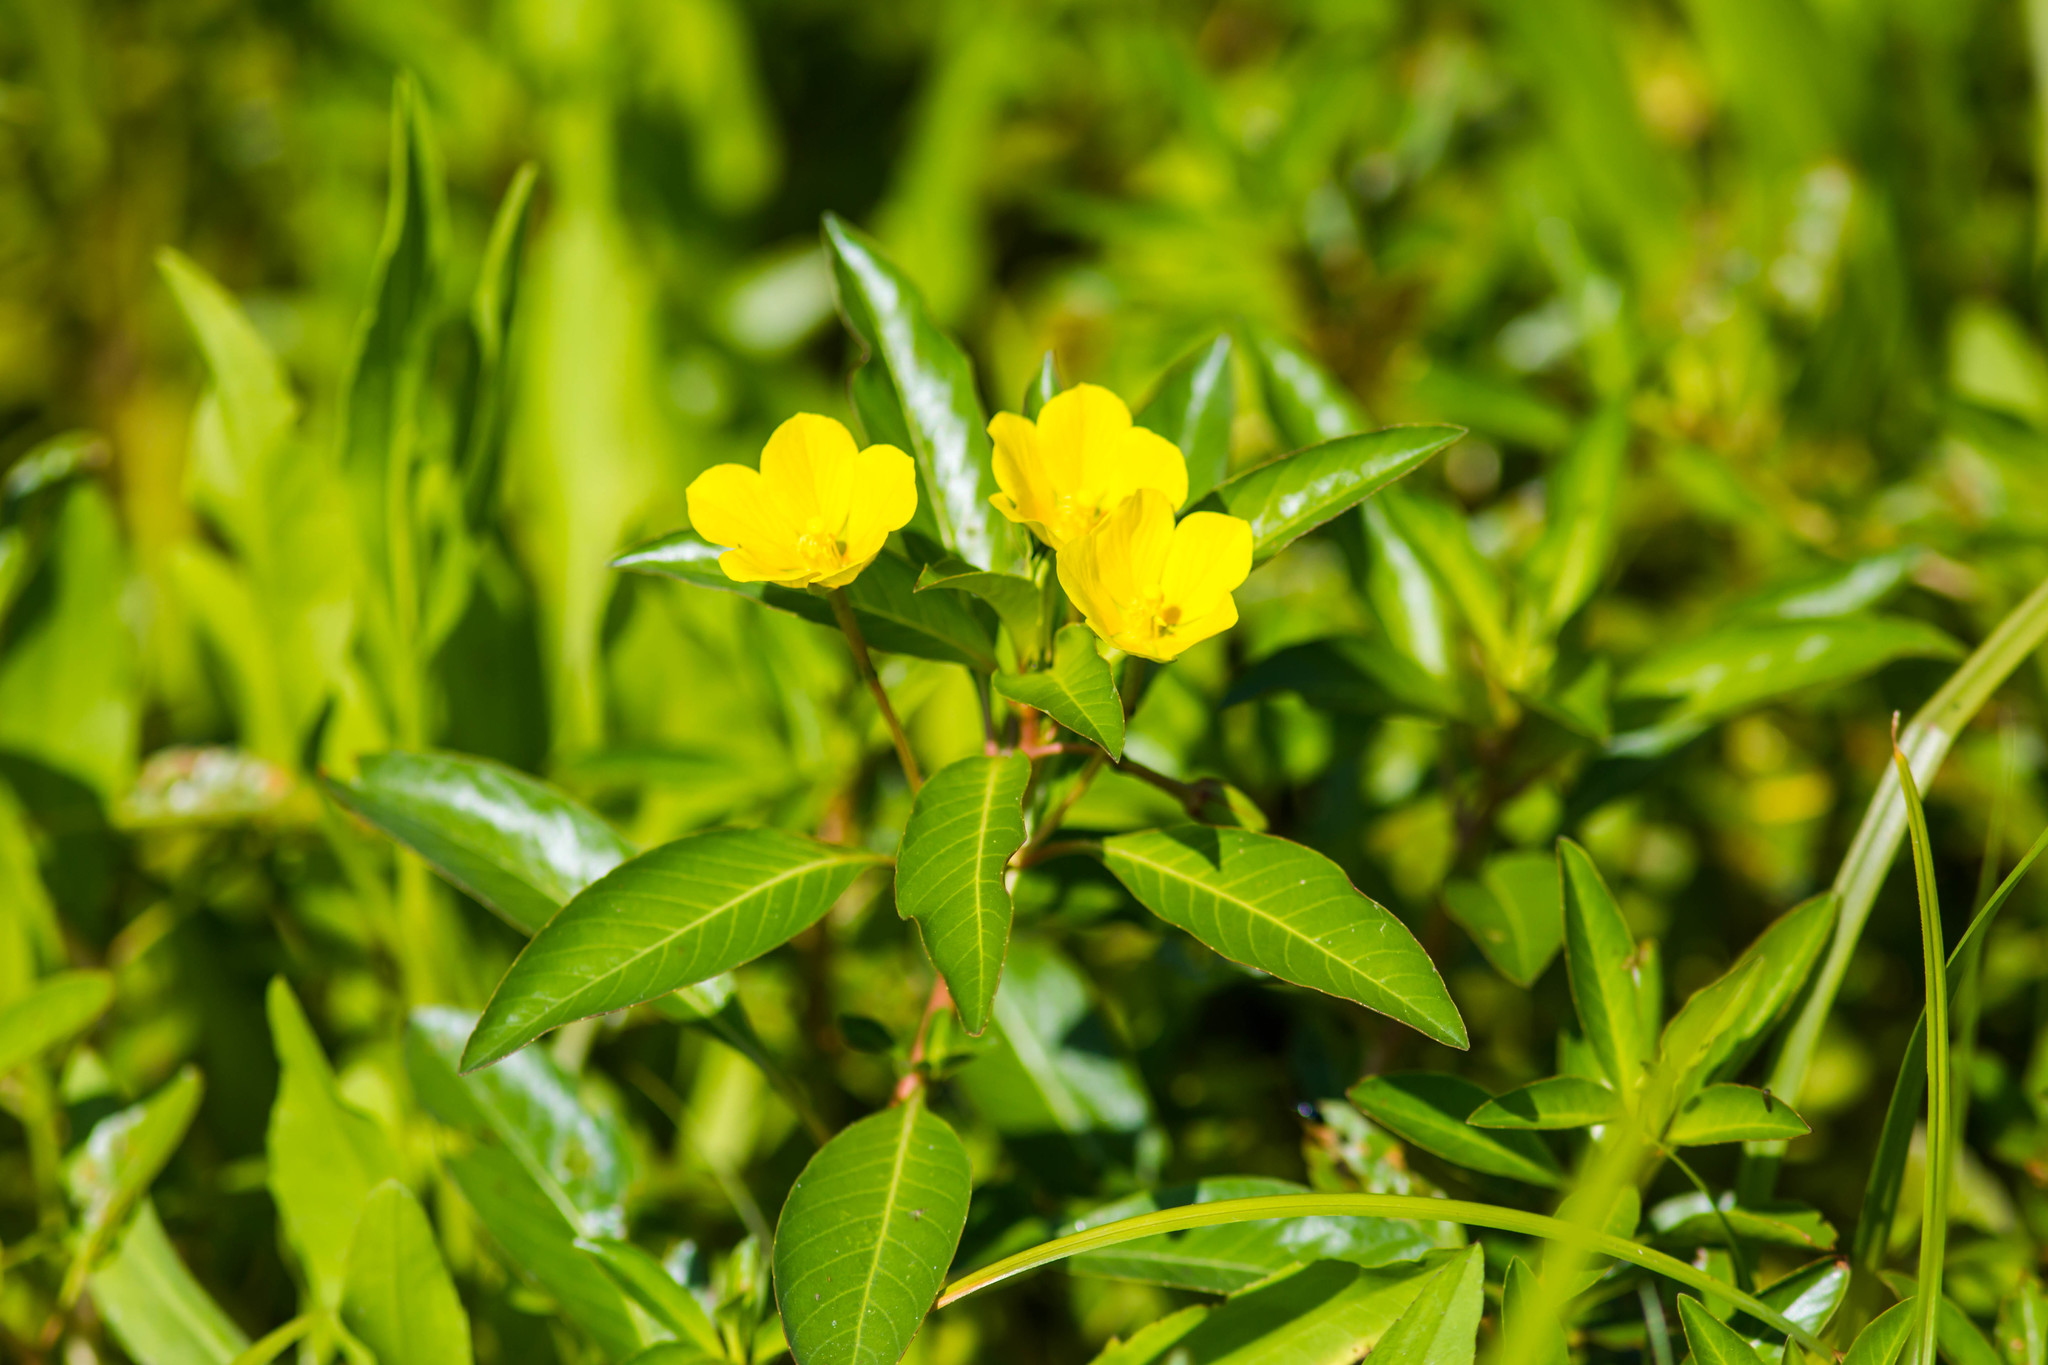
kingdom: Plantae
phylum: Tracheophyta
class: Magnoliopsida
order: Myrtales
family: Onagraceae
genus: Ludwigia
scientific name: Ludwigia peploides
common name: Floating primrose-willow
